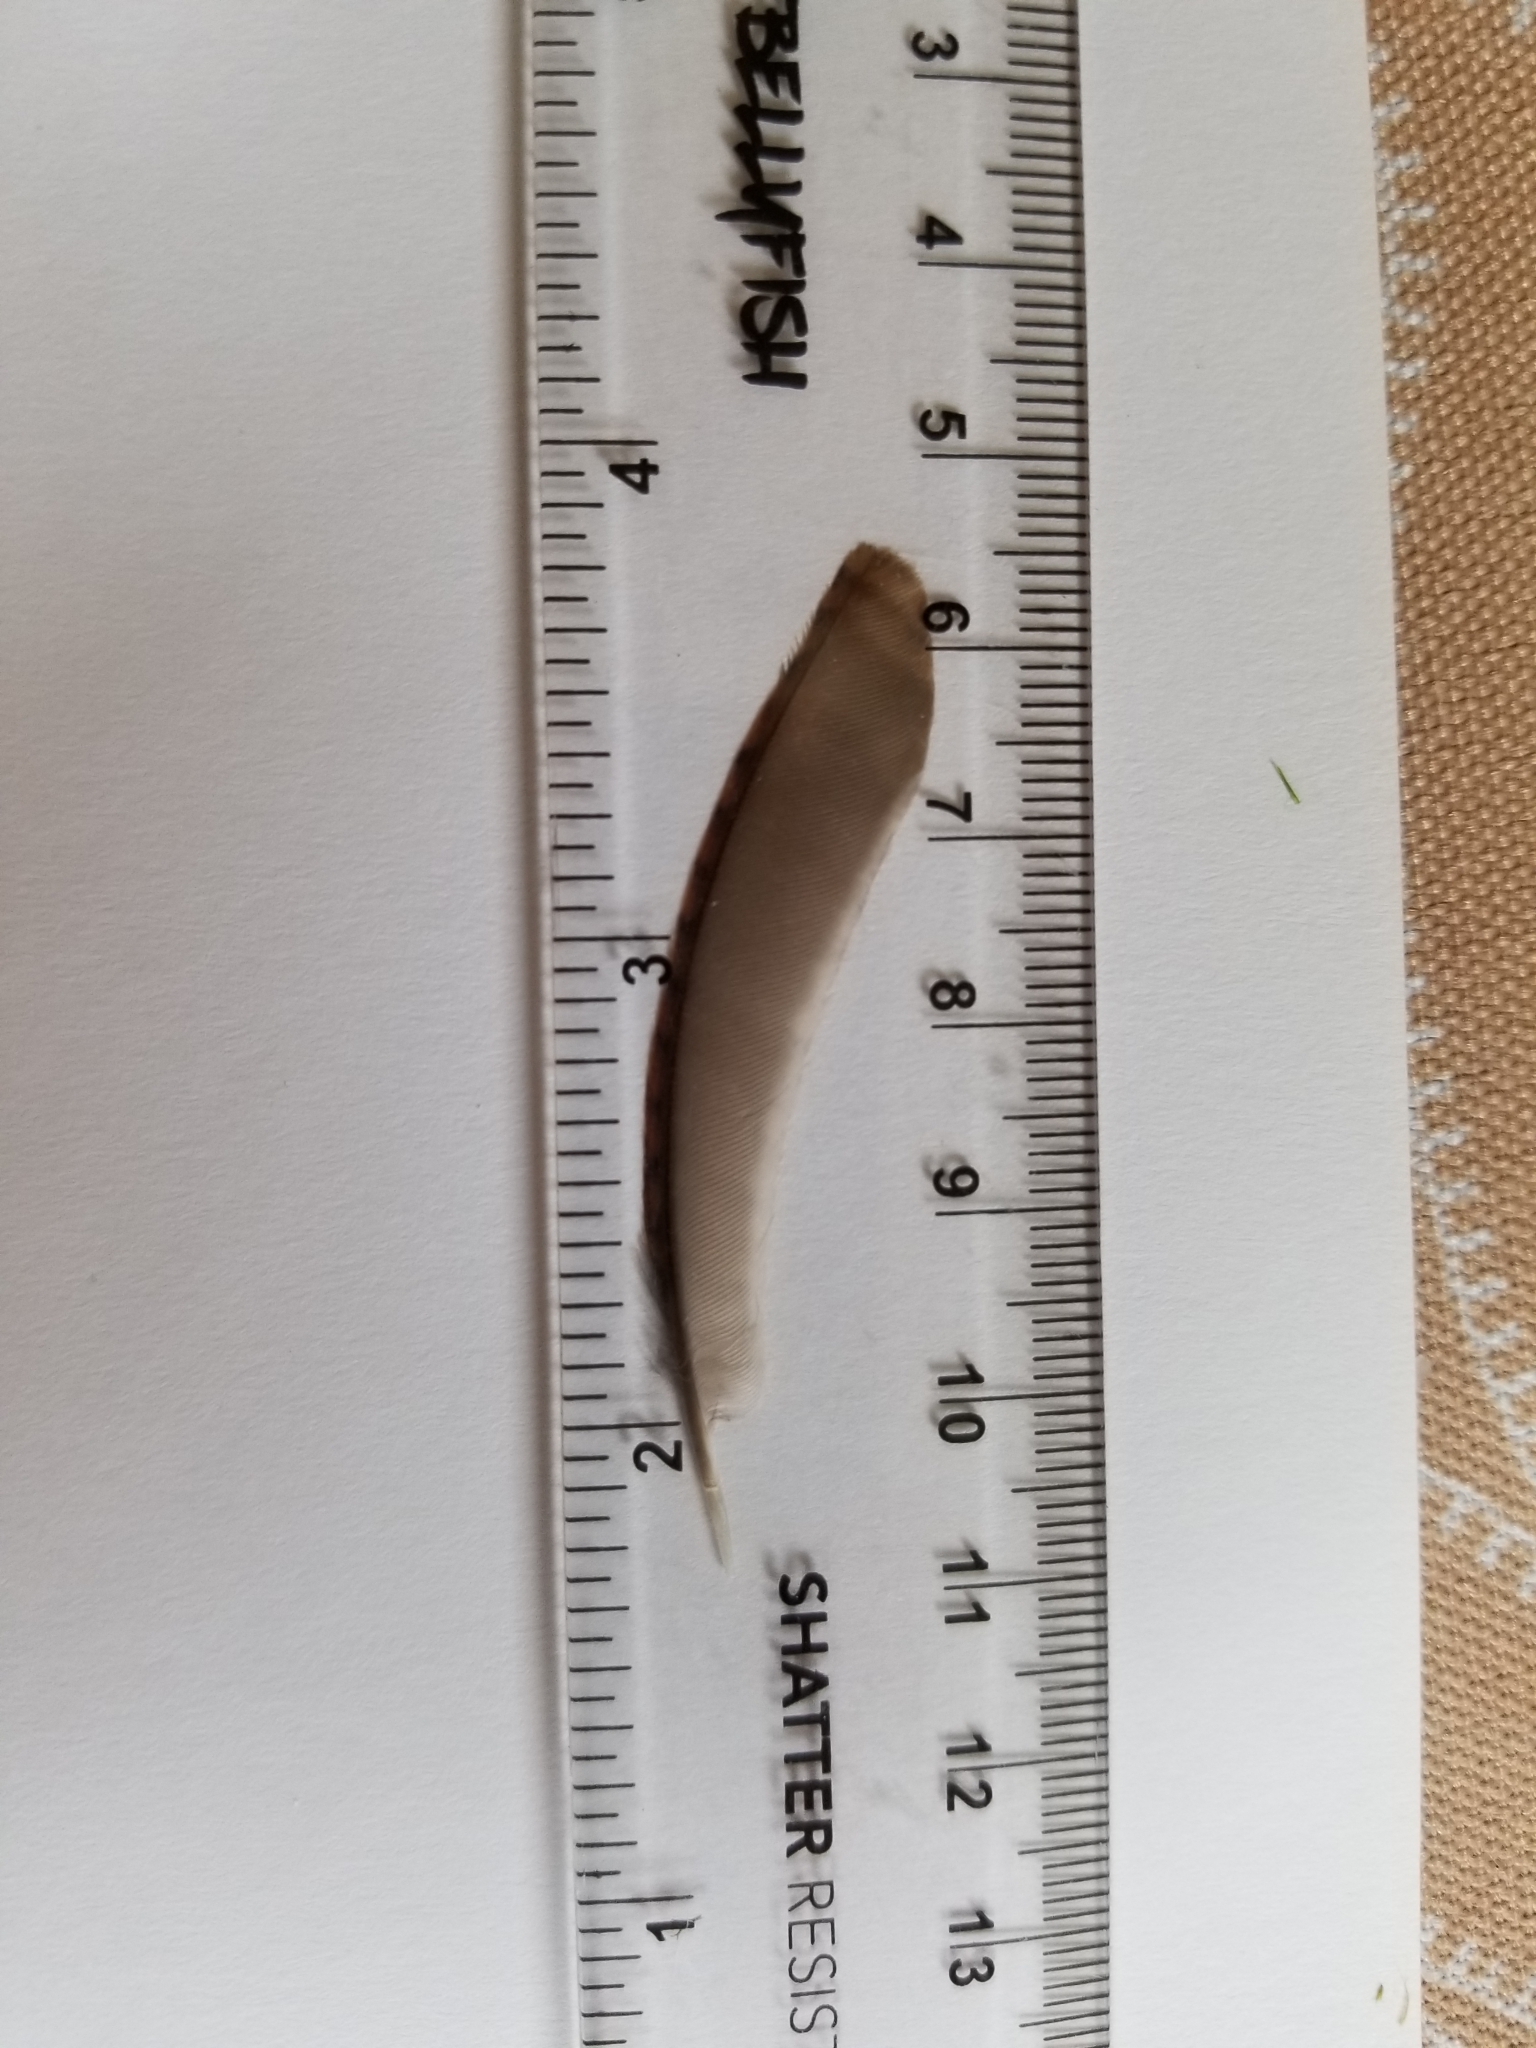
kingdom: Animalia
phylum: Chordata
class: Aves
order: Passeriformes
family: Troglodytidae
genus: Thryothorus
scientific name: Thryothorus ludovicianus
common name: Carolina wren
